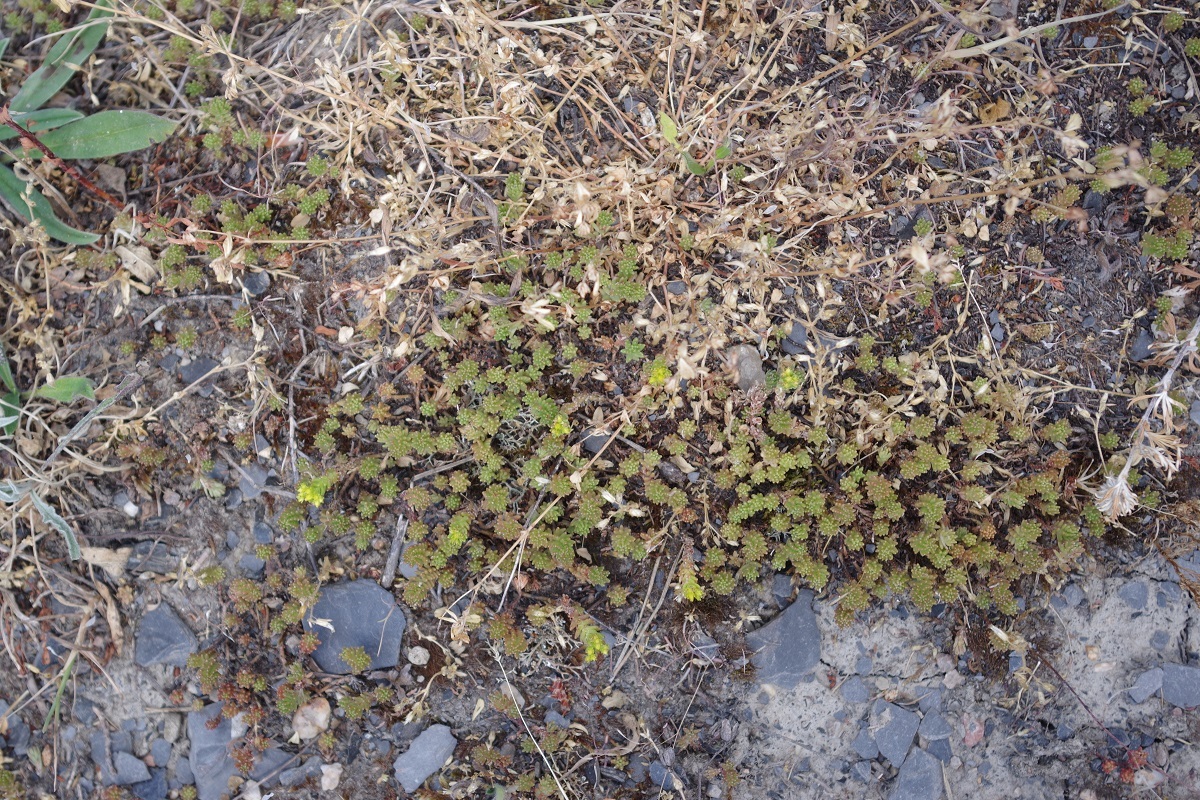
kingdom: Plantae
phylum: Tracheophyta
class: Magnoliopsida
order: Saxifragales
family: Crassulaceae
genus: Sedum
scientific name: Sedum sexangulare
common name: Tasteless stonecrop
